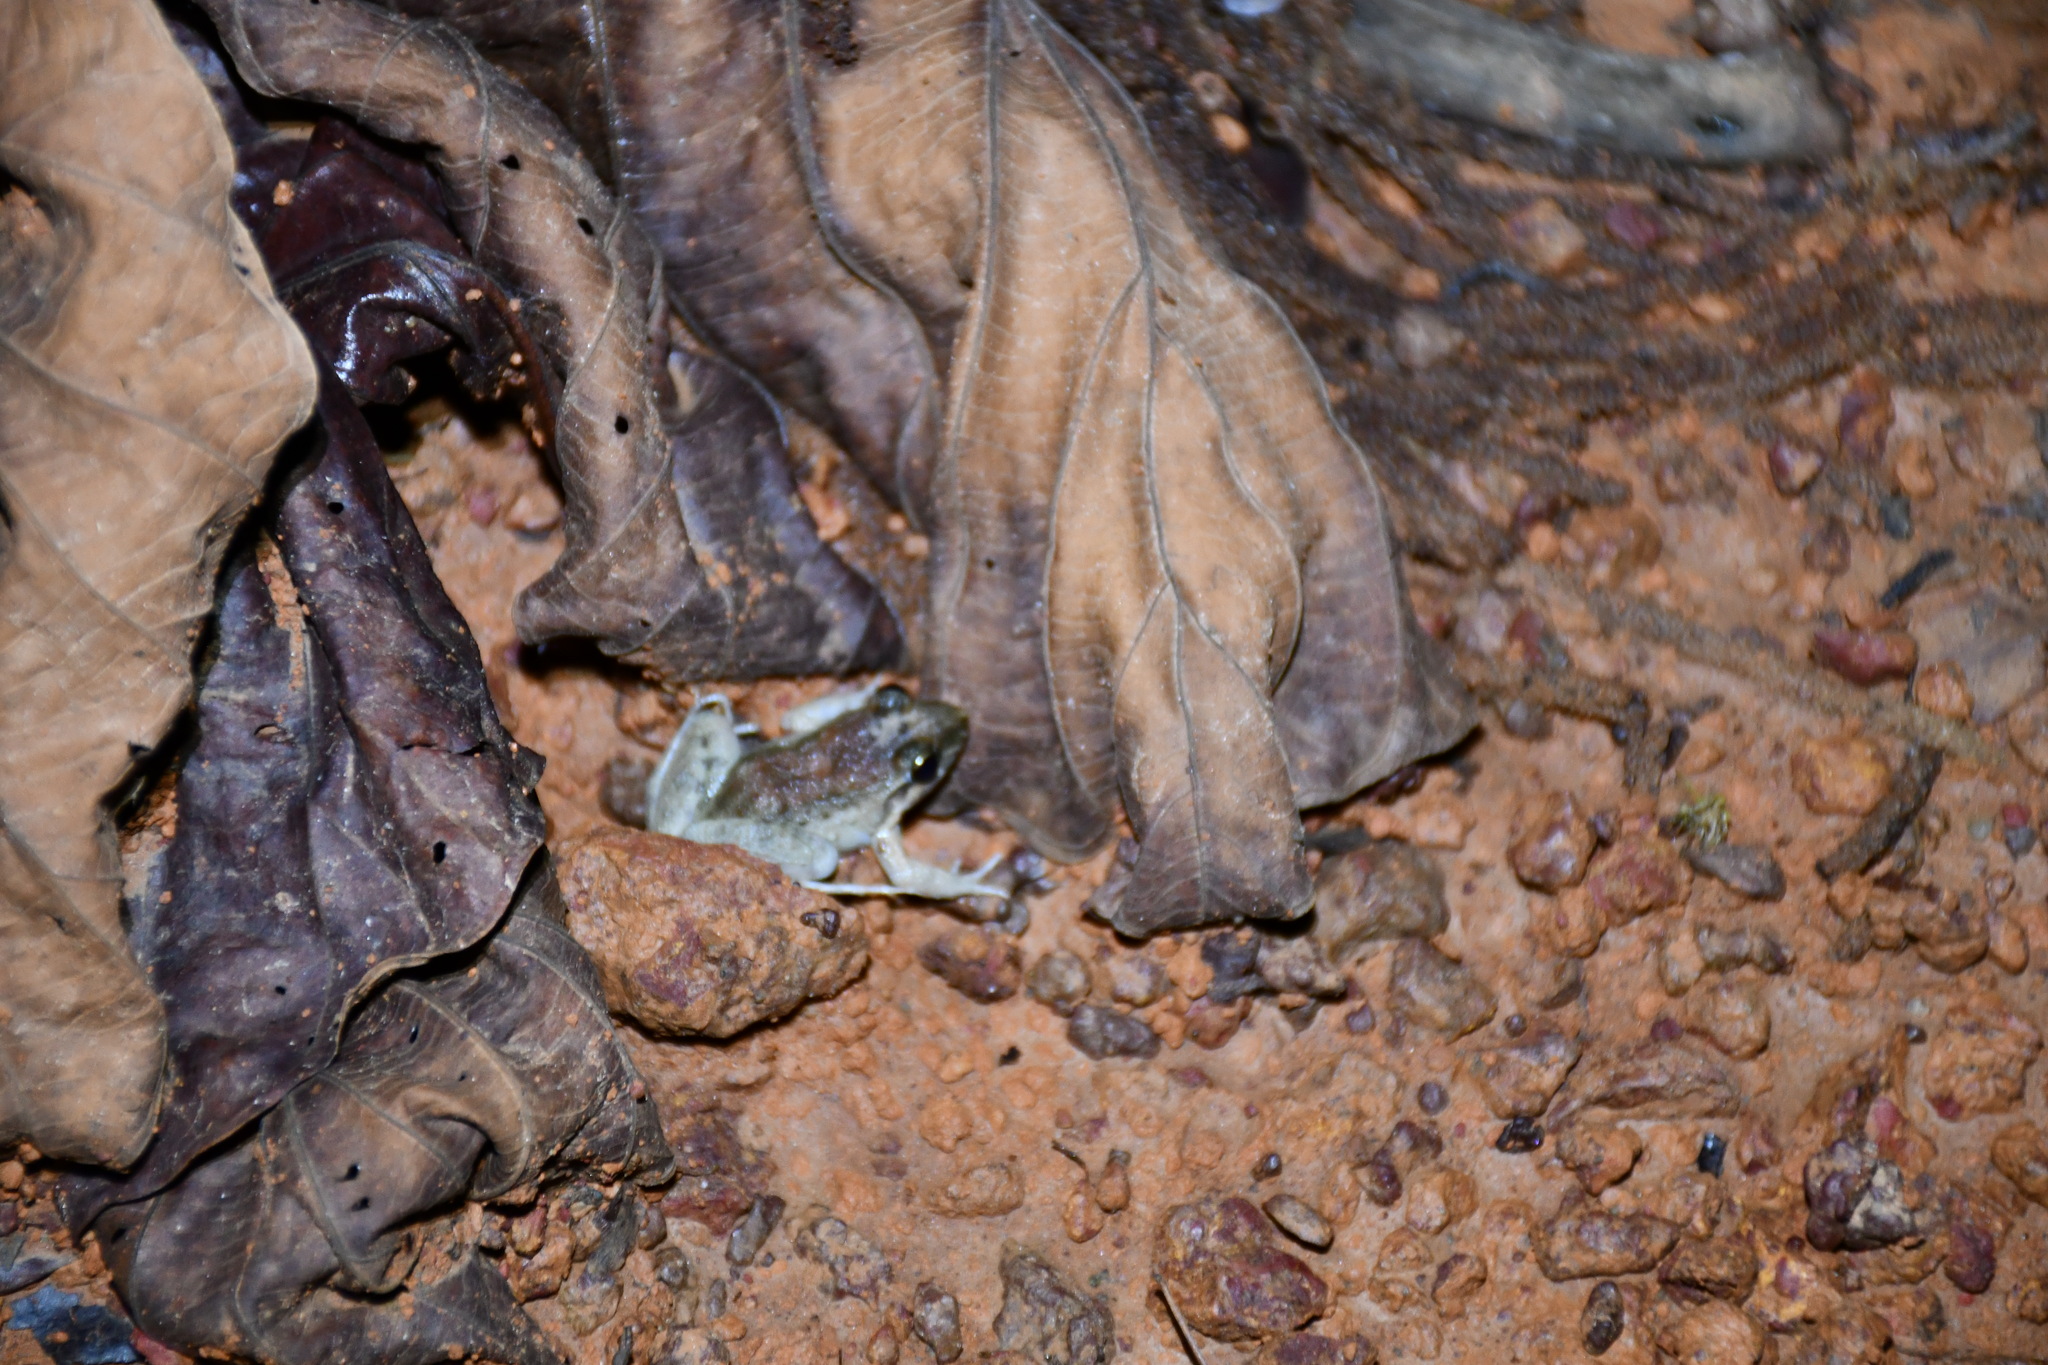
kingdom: Animalia
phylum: Chordata
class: Amphibia
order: Anura
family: Leptodactylidae
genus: Leptodactylus
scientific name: Leptodactylus petersii
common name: Peters' thin-toed frog
